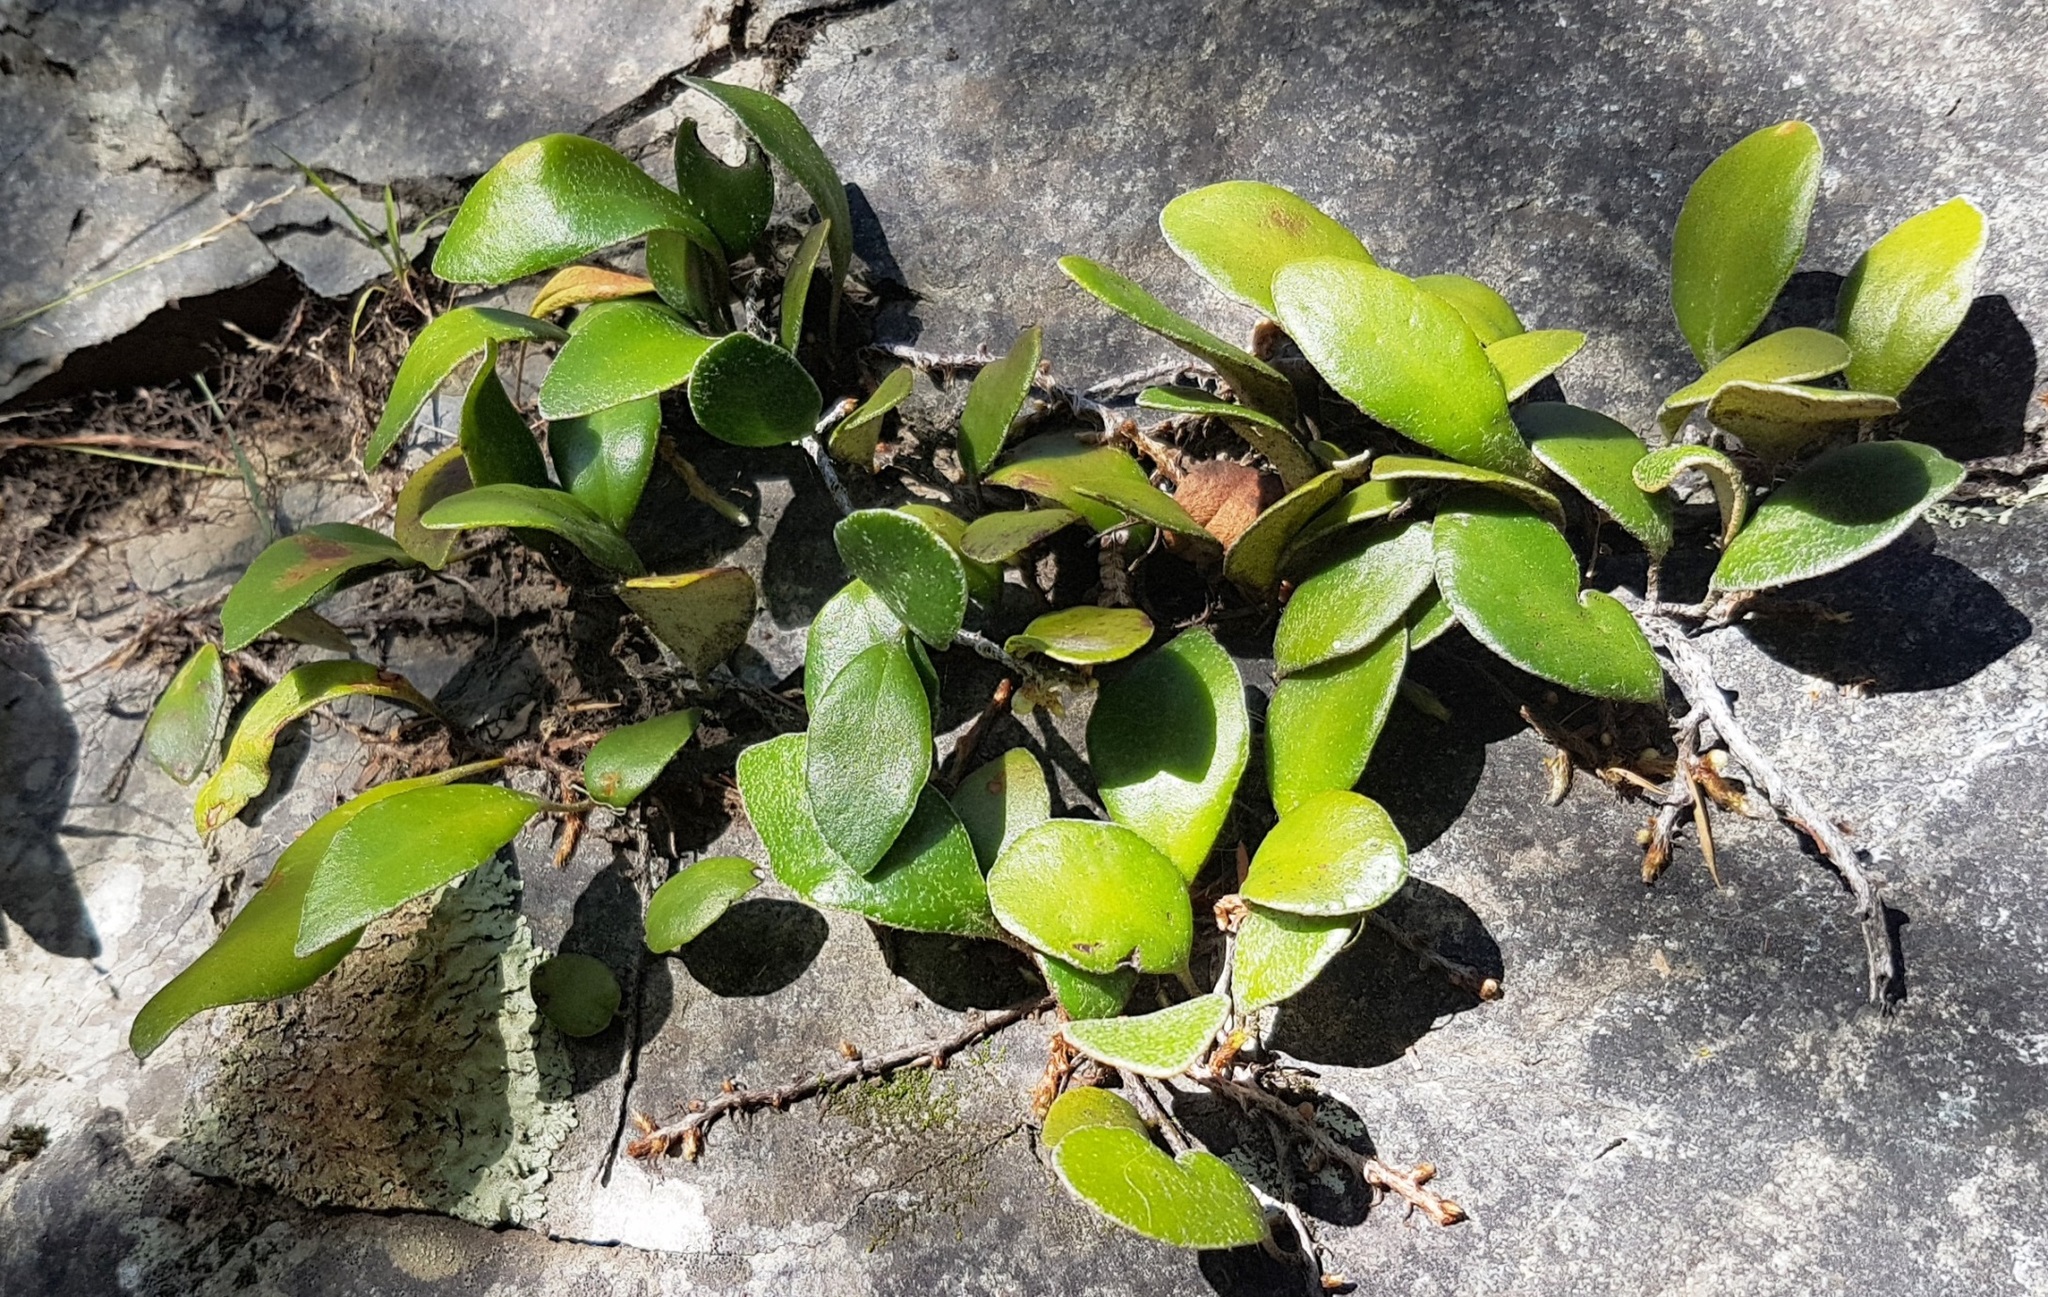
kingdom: Plantae
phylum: Tracheophyta
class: Polypodiopsida
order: Polypodiales
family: Polypodiaceae
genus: Pyrrosia
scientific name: Pyrrosia eleagnifolia
